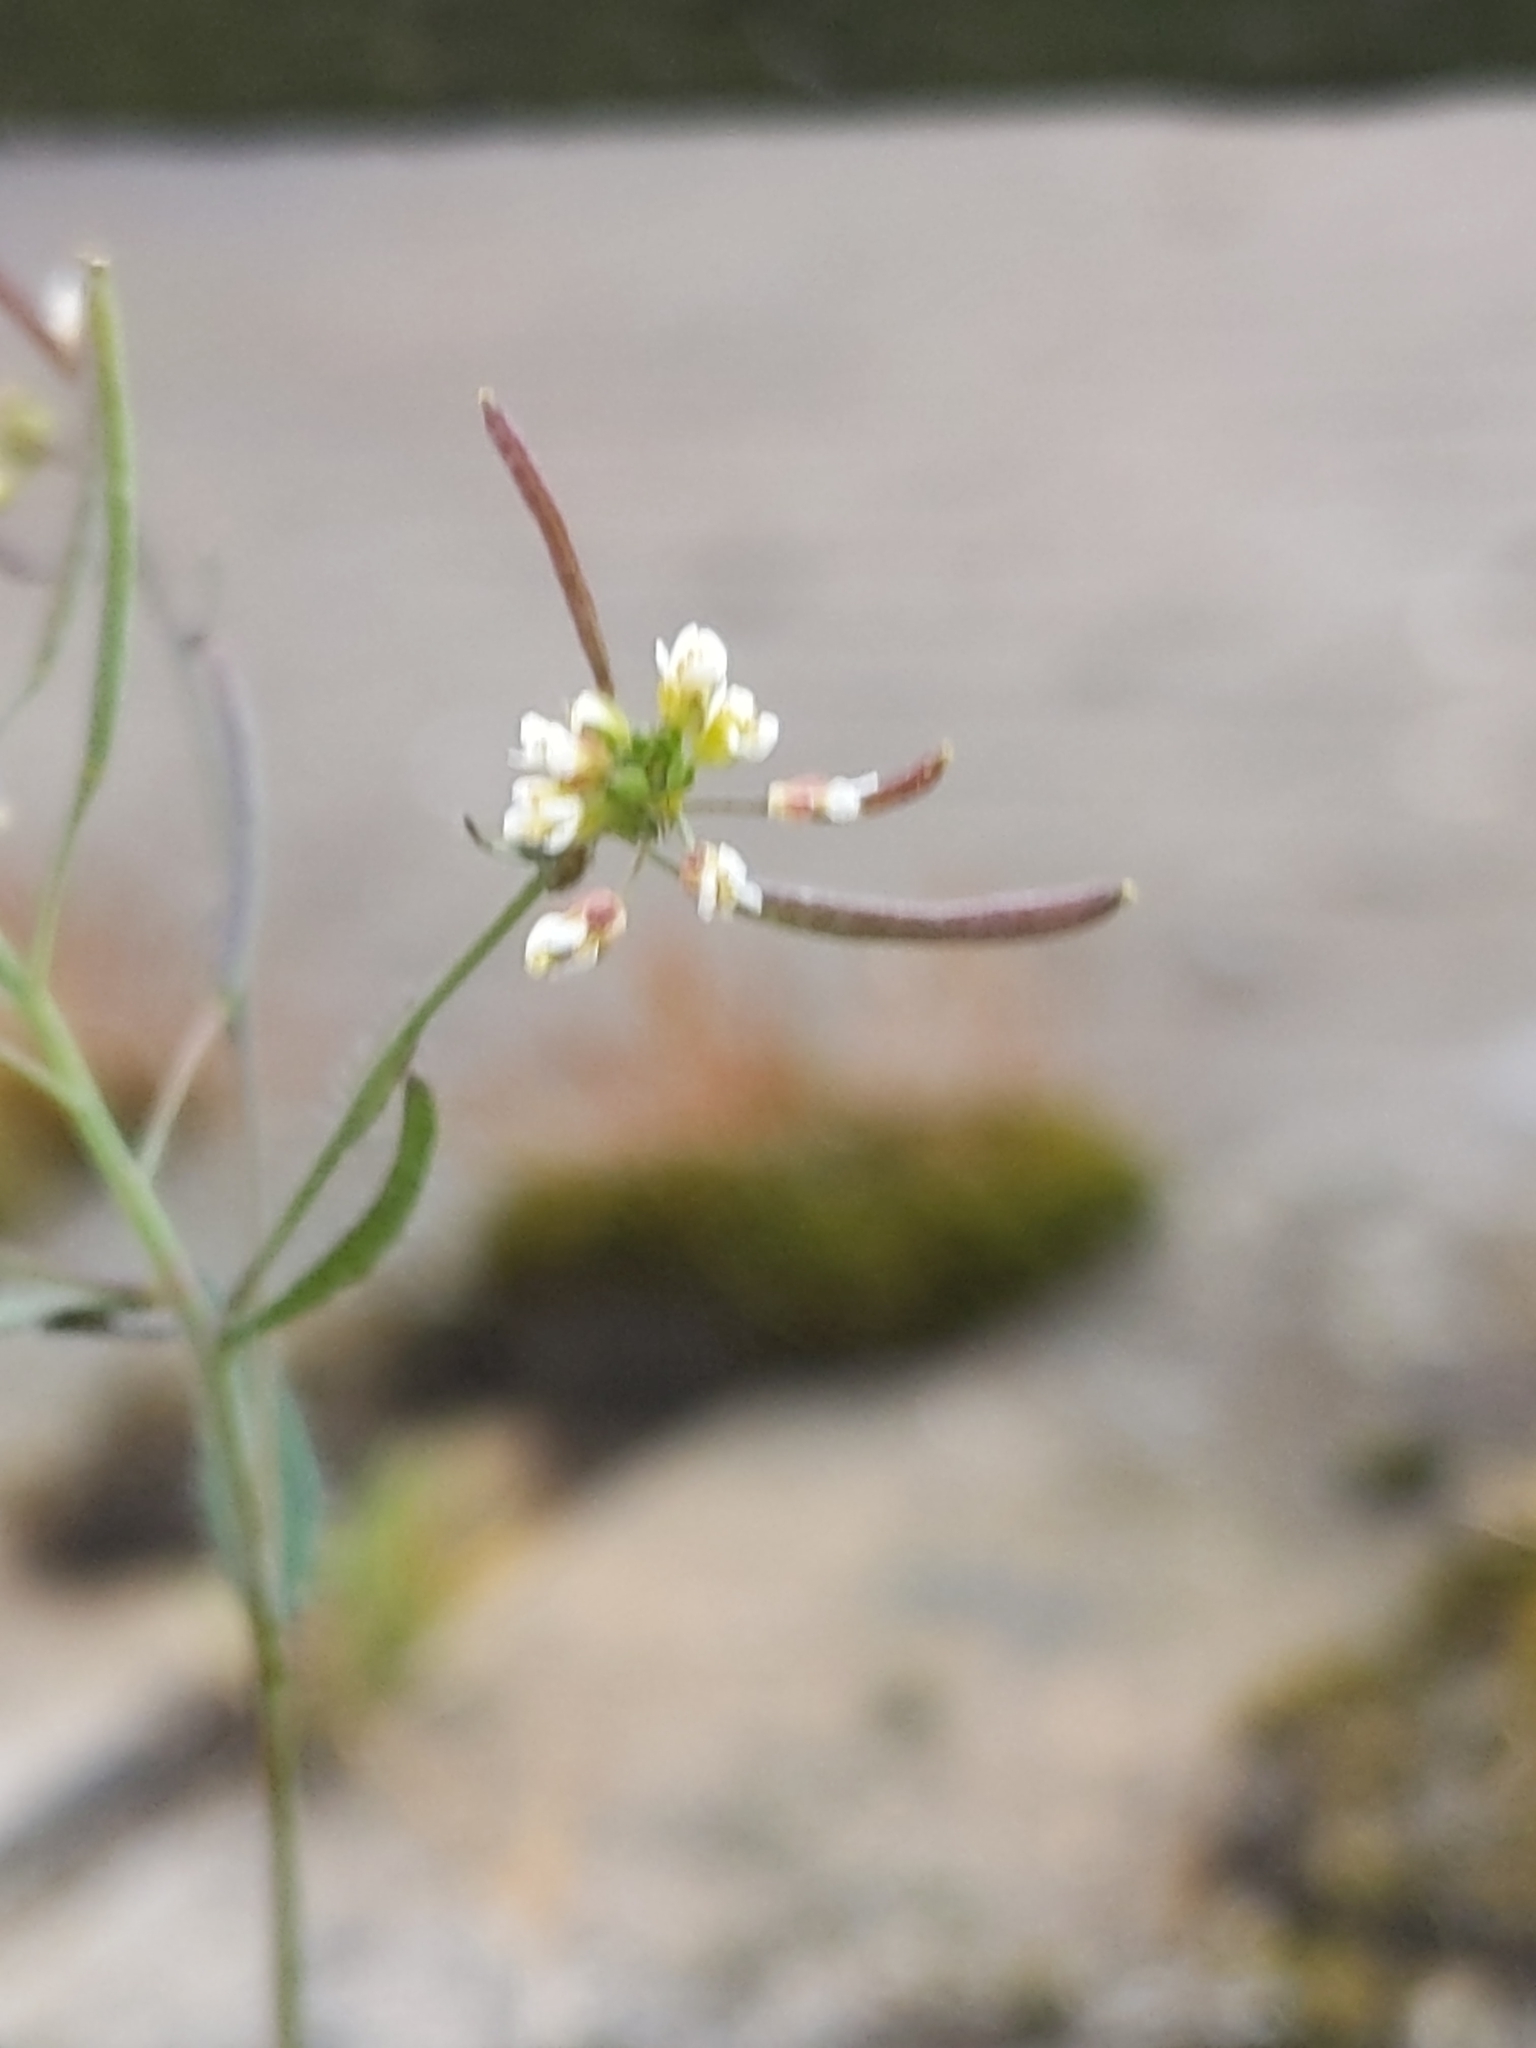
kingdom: Plantae
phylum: Tracheophyta
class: Magnoliopsida
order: Brassicales
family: Brassicaceae
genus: Arabidopsis
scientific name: Arabidopsis thaliana
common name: Thale cress
